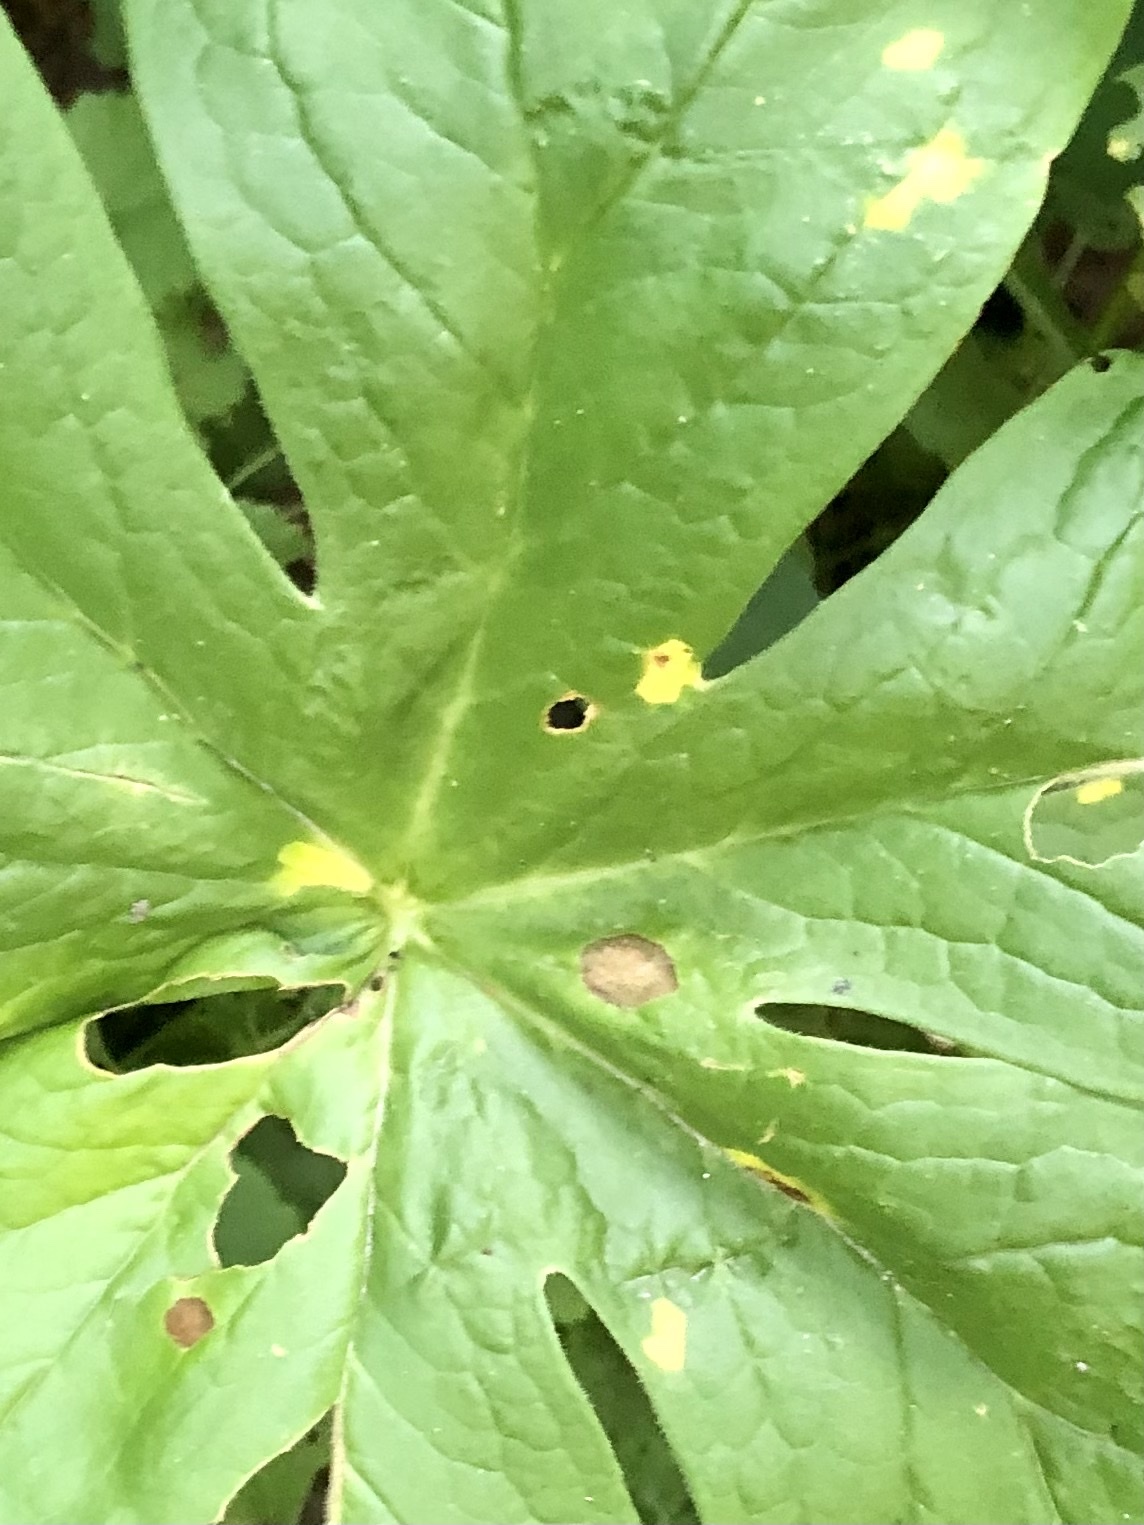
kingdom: Fungi
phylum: Basidiomycota
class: Pucciniomycetes
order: Pucciniales
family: Pucciniaceae
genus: Puccinia
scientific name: Puccinia podophylli
